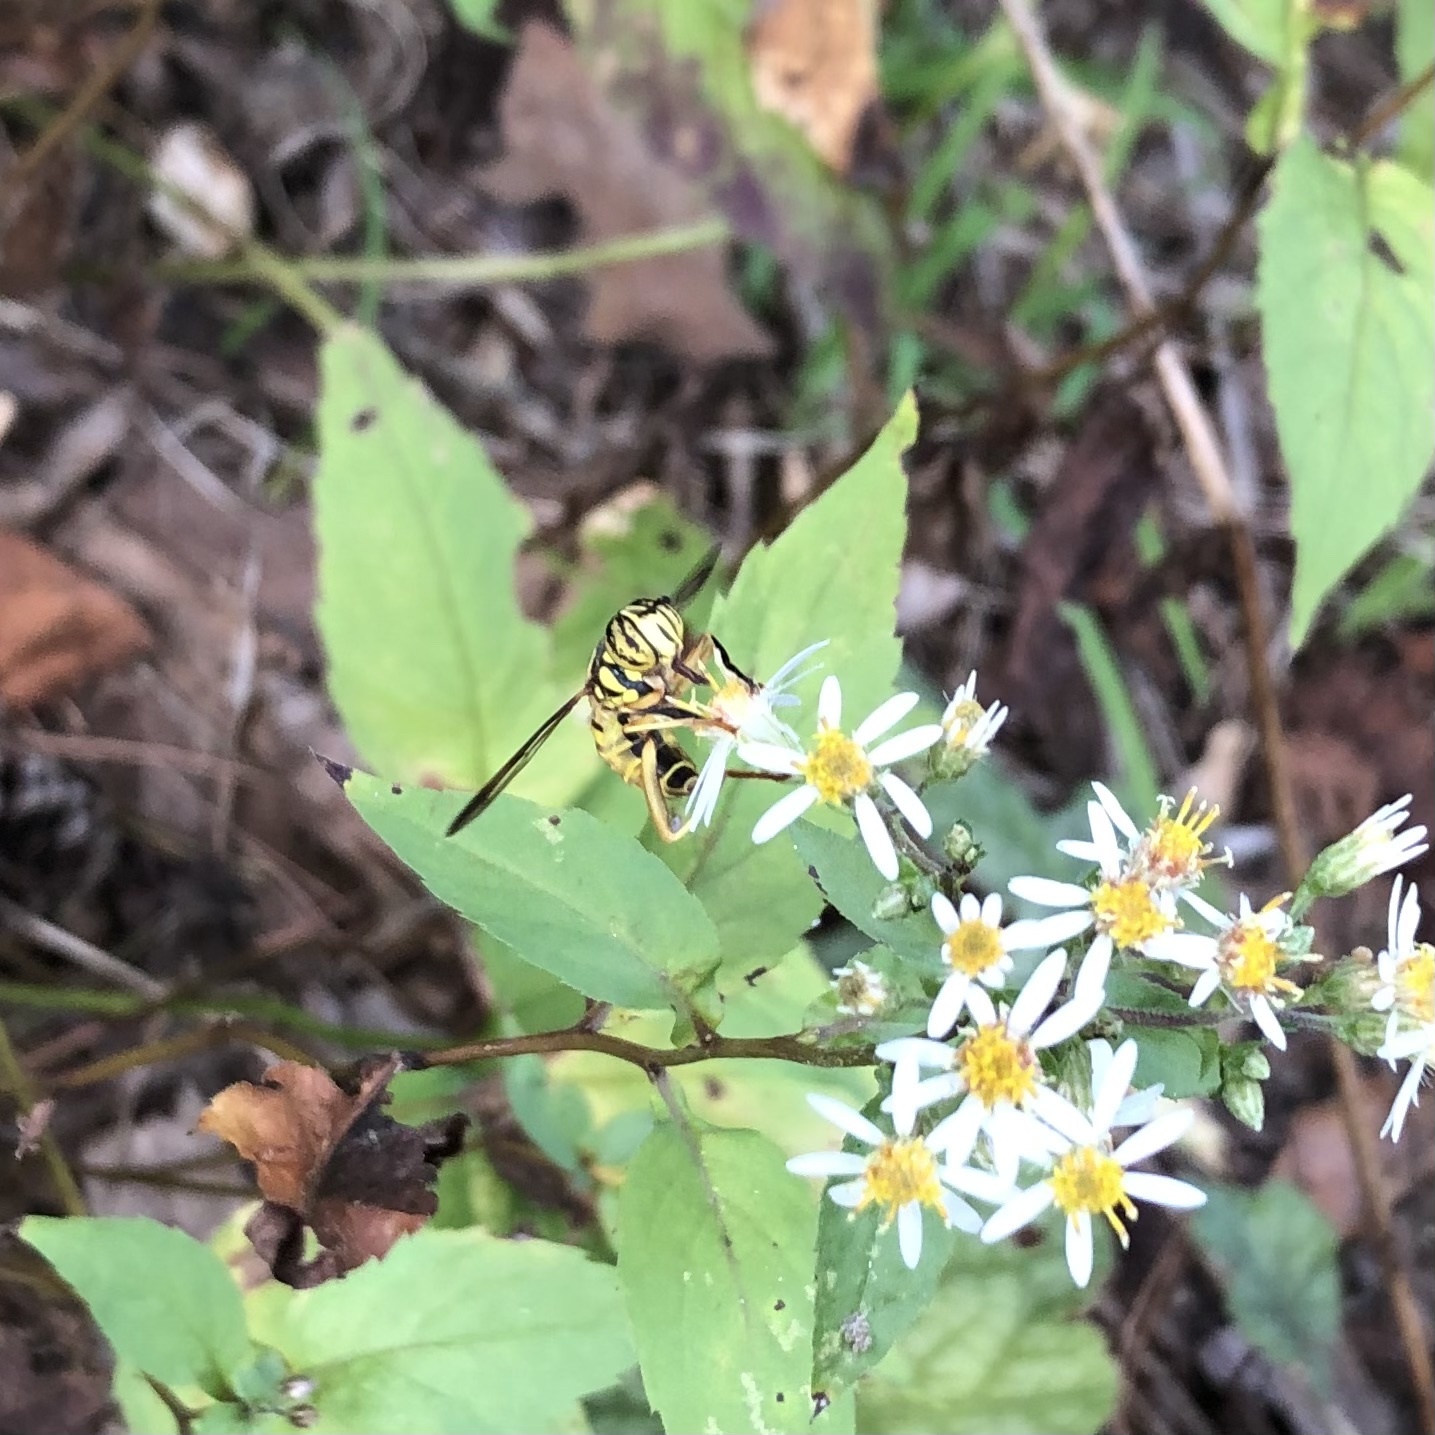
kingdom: Animalia
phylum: Arthropoda
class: Insecta
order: Diptera
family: Syrphidae
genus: Spilomyia
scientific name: Spilomyia longicornis
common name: Eastern hornet fly
